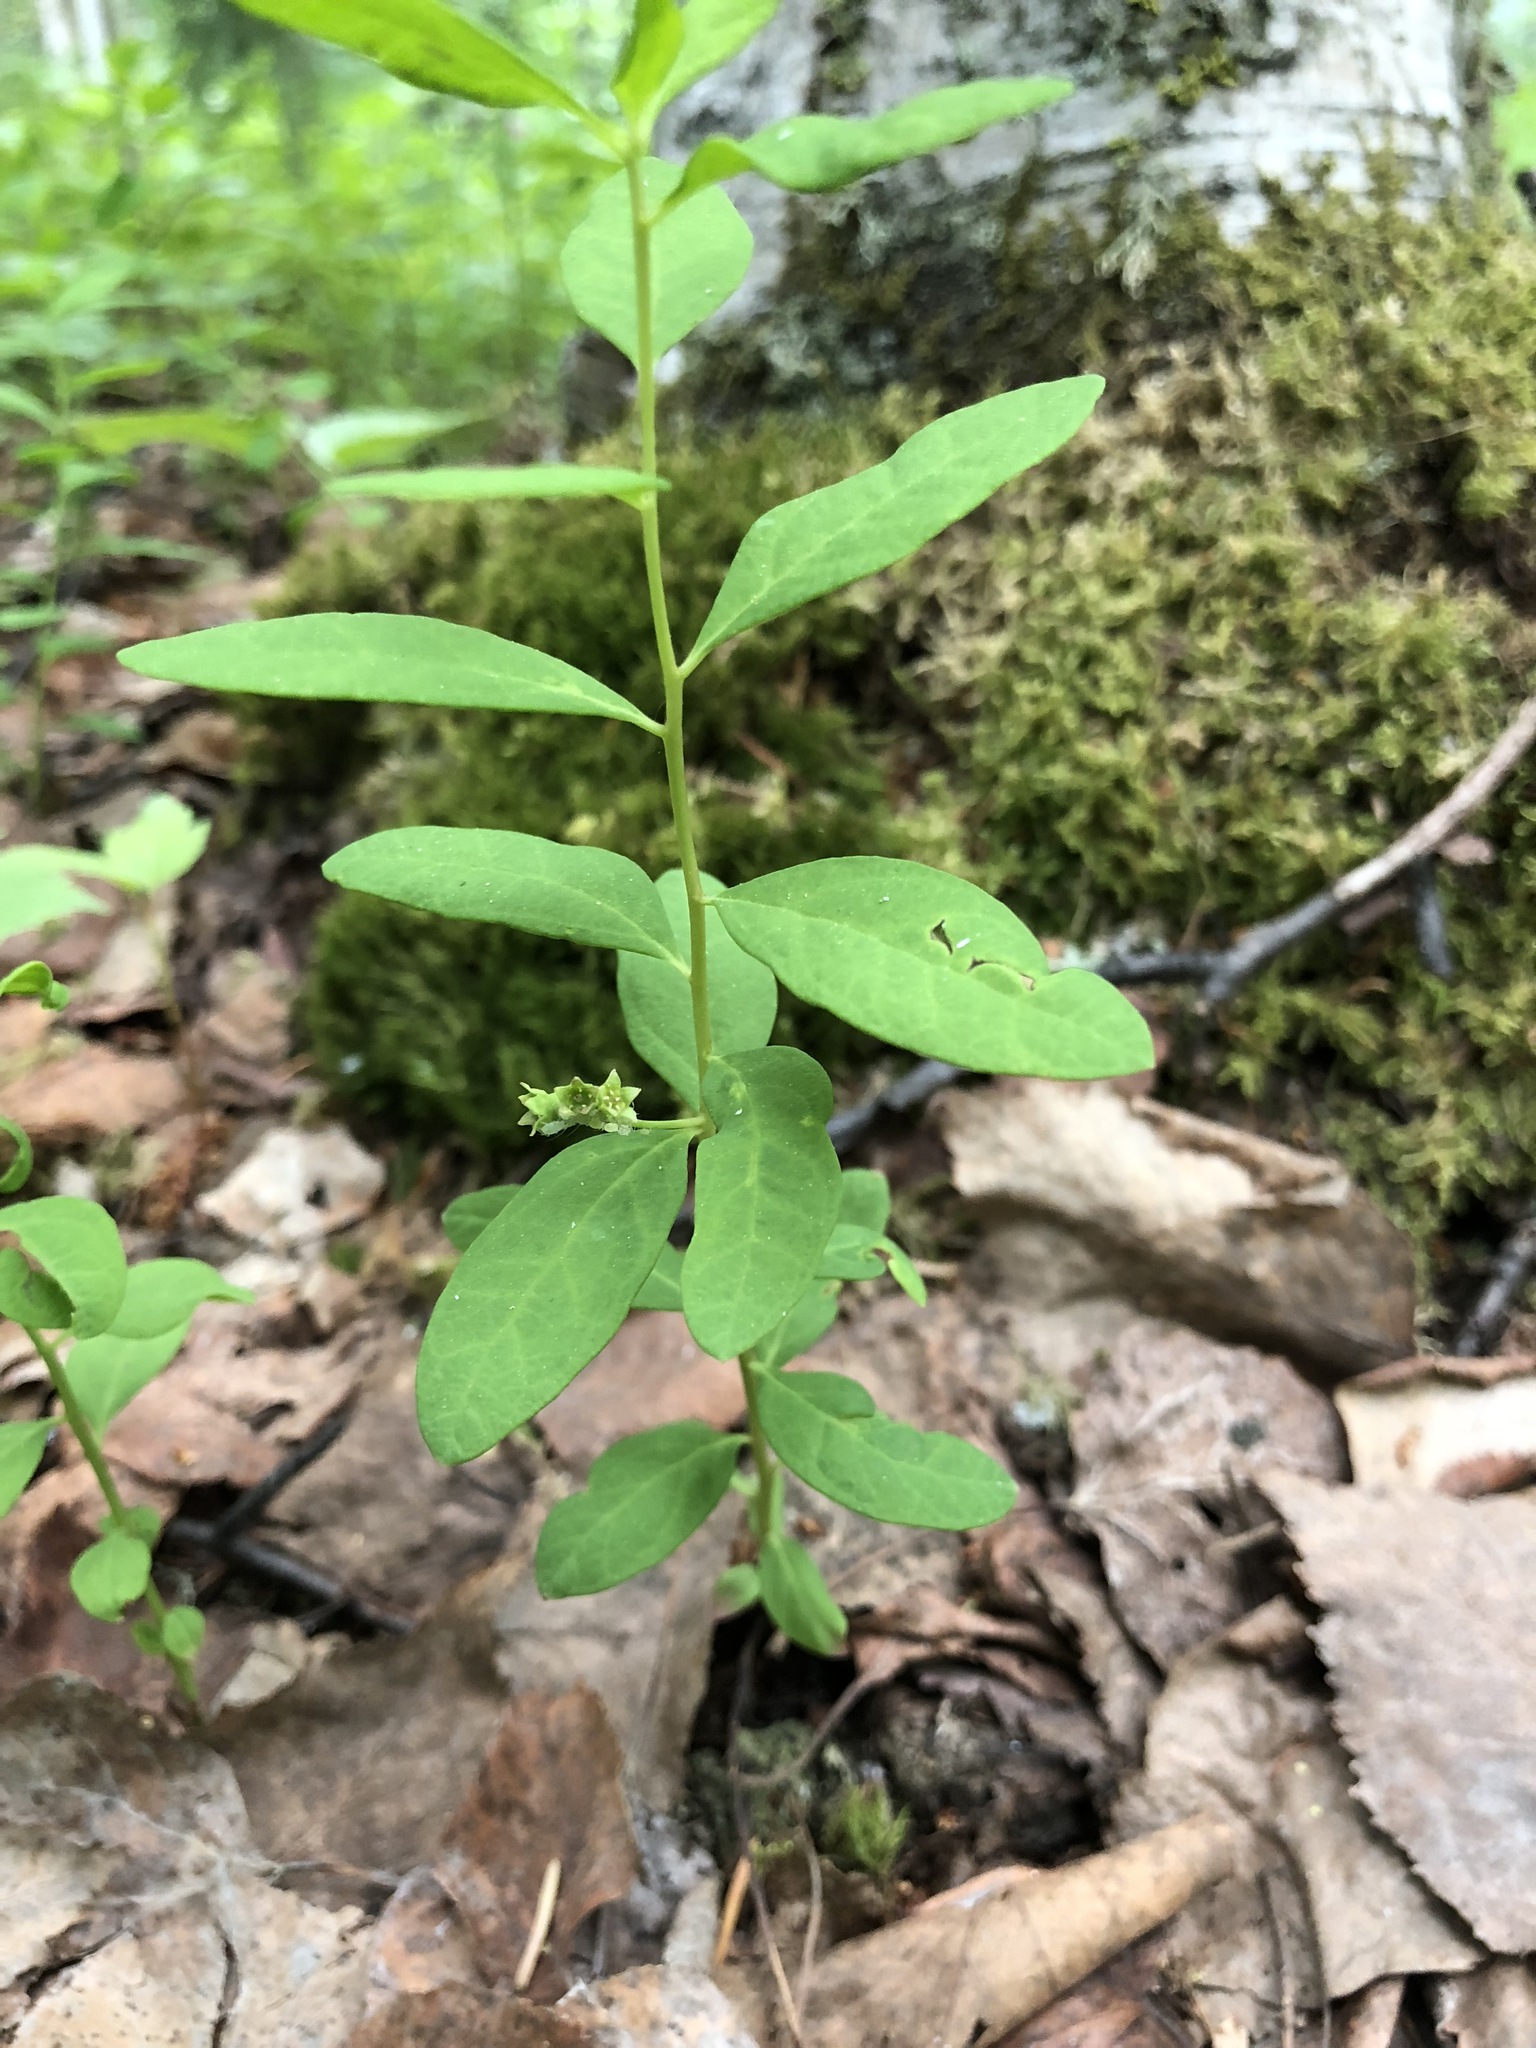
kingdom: Plantae
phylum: Tracheophyta
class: Magnoliopsida
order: Santalales
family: Comandraceae
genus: Geocaulon
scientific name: Geocaulon lividum
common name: Earthberry
